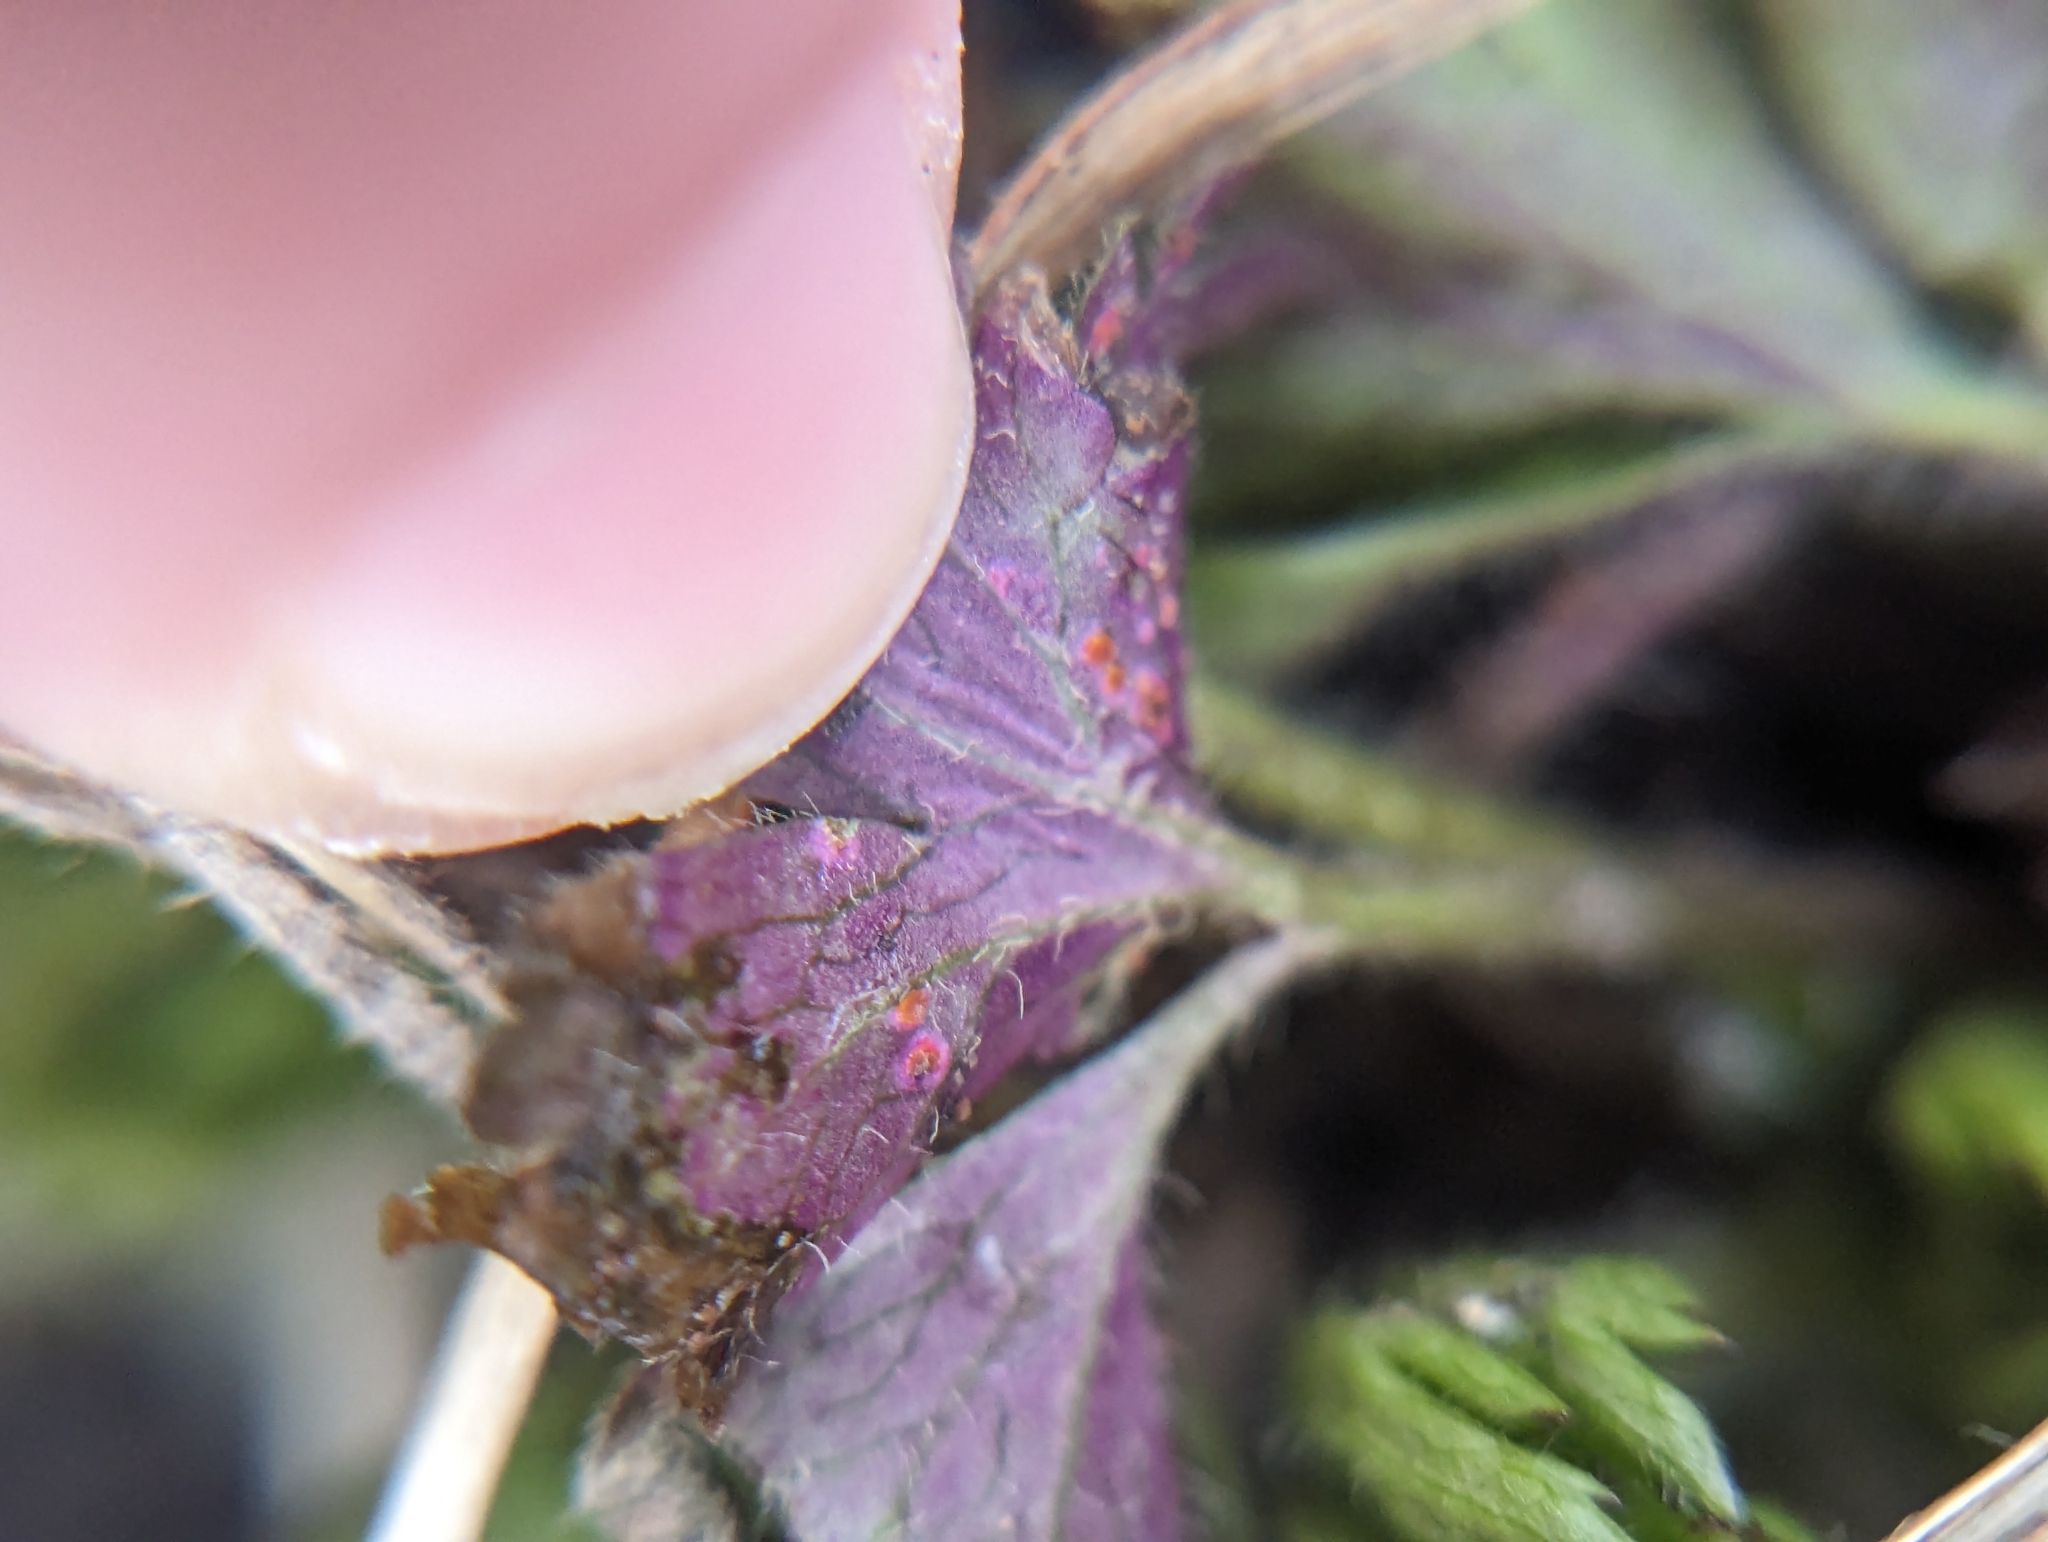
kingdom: Fungi
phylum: Basidiomycota
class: Pucciniomycetes
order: Pucciniales
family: Pucciniaceae
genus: Puccinia
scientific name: Puccinia anemones-virginianae
